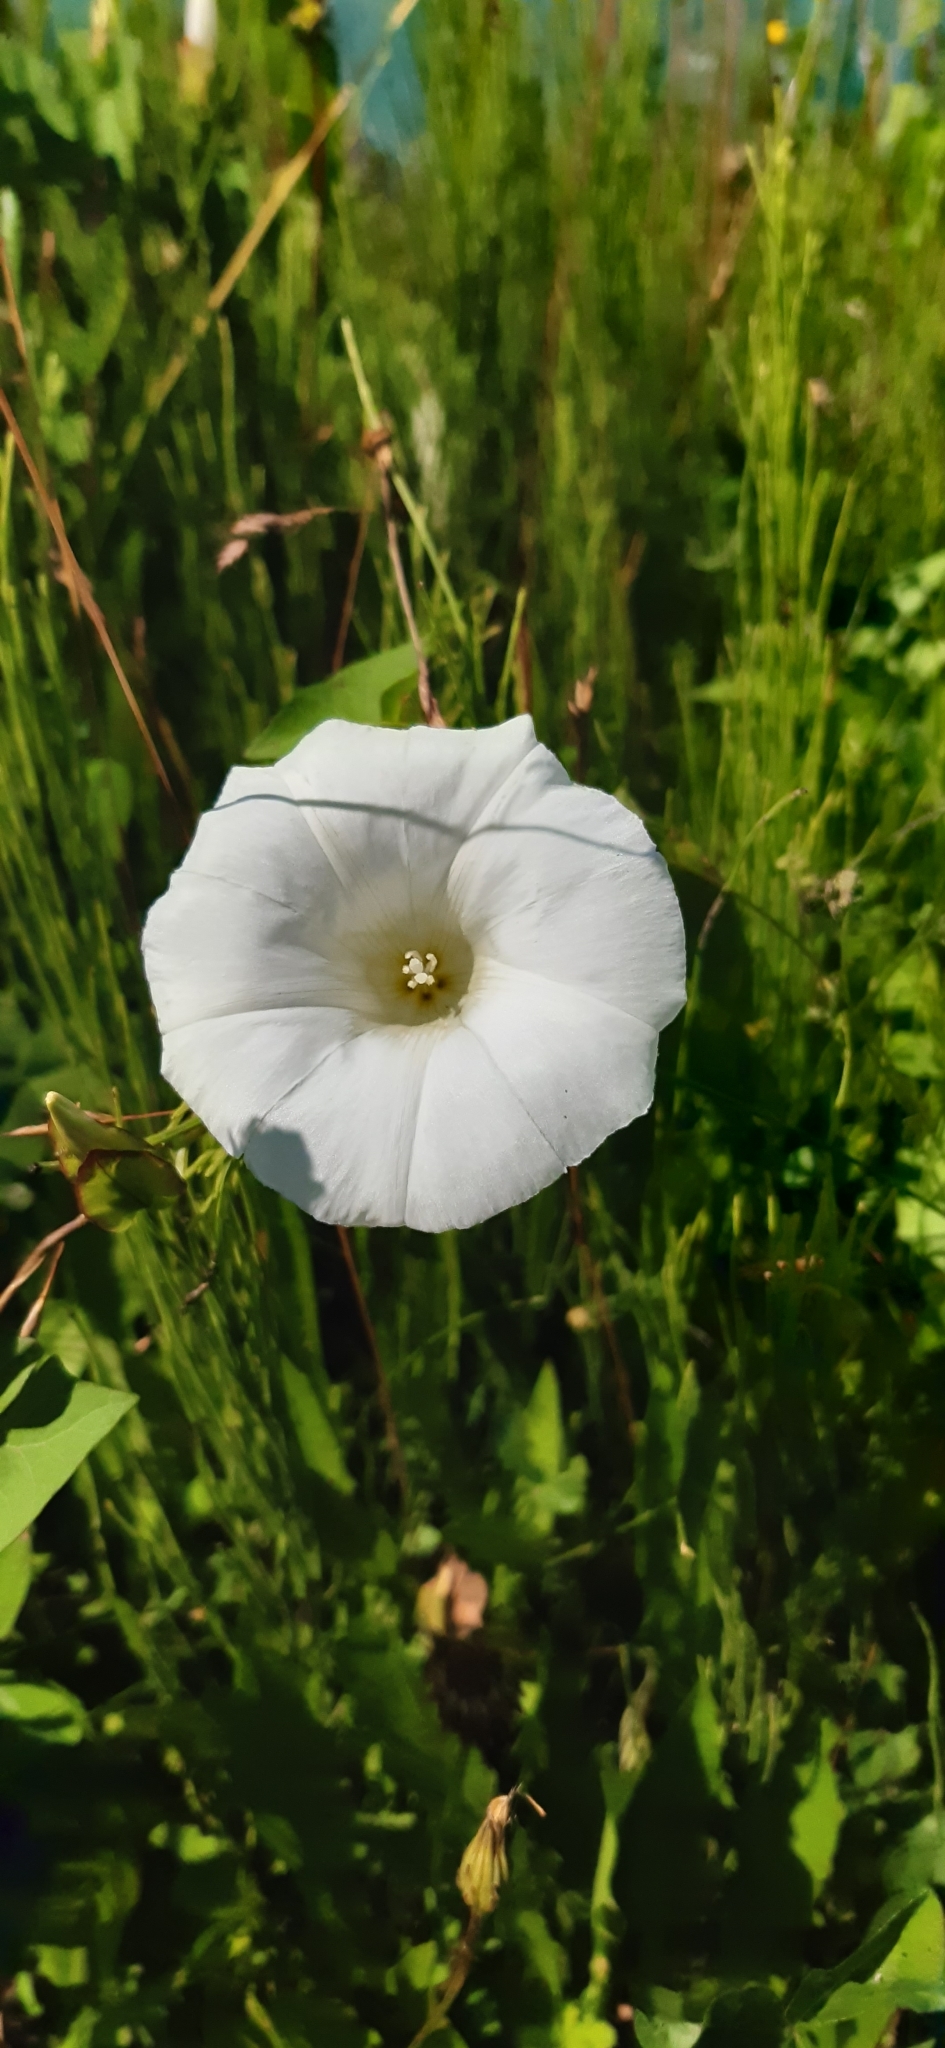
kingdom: Plantae
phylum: Tracheophyta
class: Magnoliopsida
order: Solanales
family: Convolvulaceae
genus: Calystegia
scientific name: Calystegia sepium
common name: Hedge bindweed
